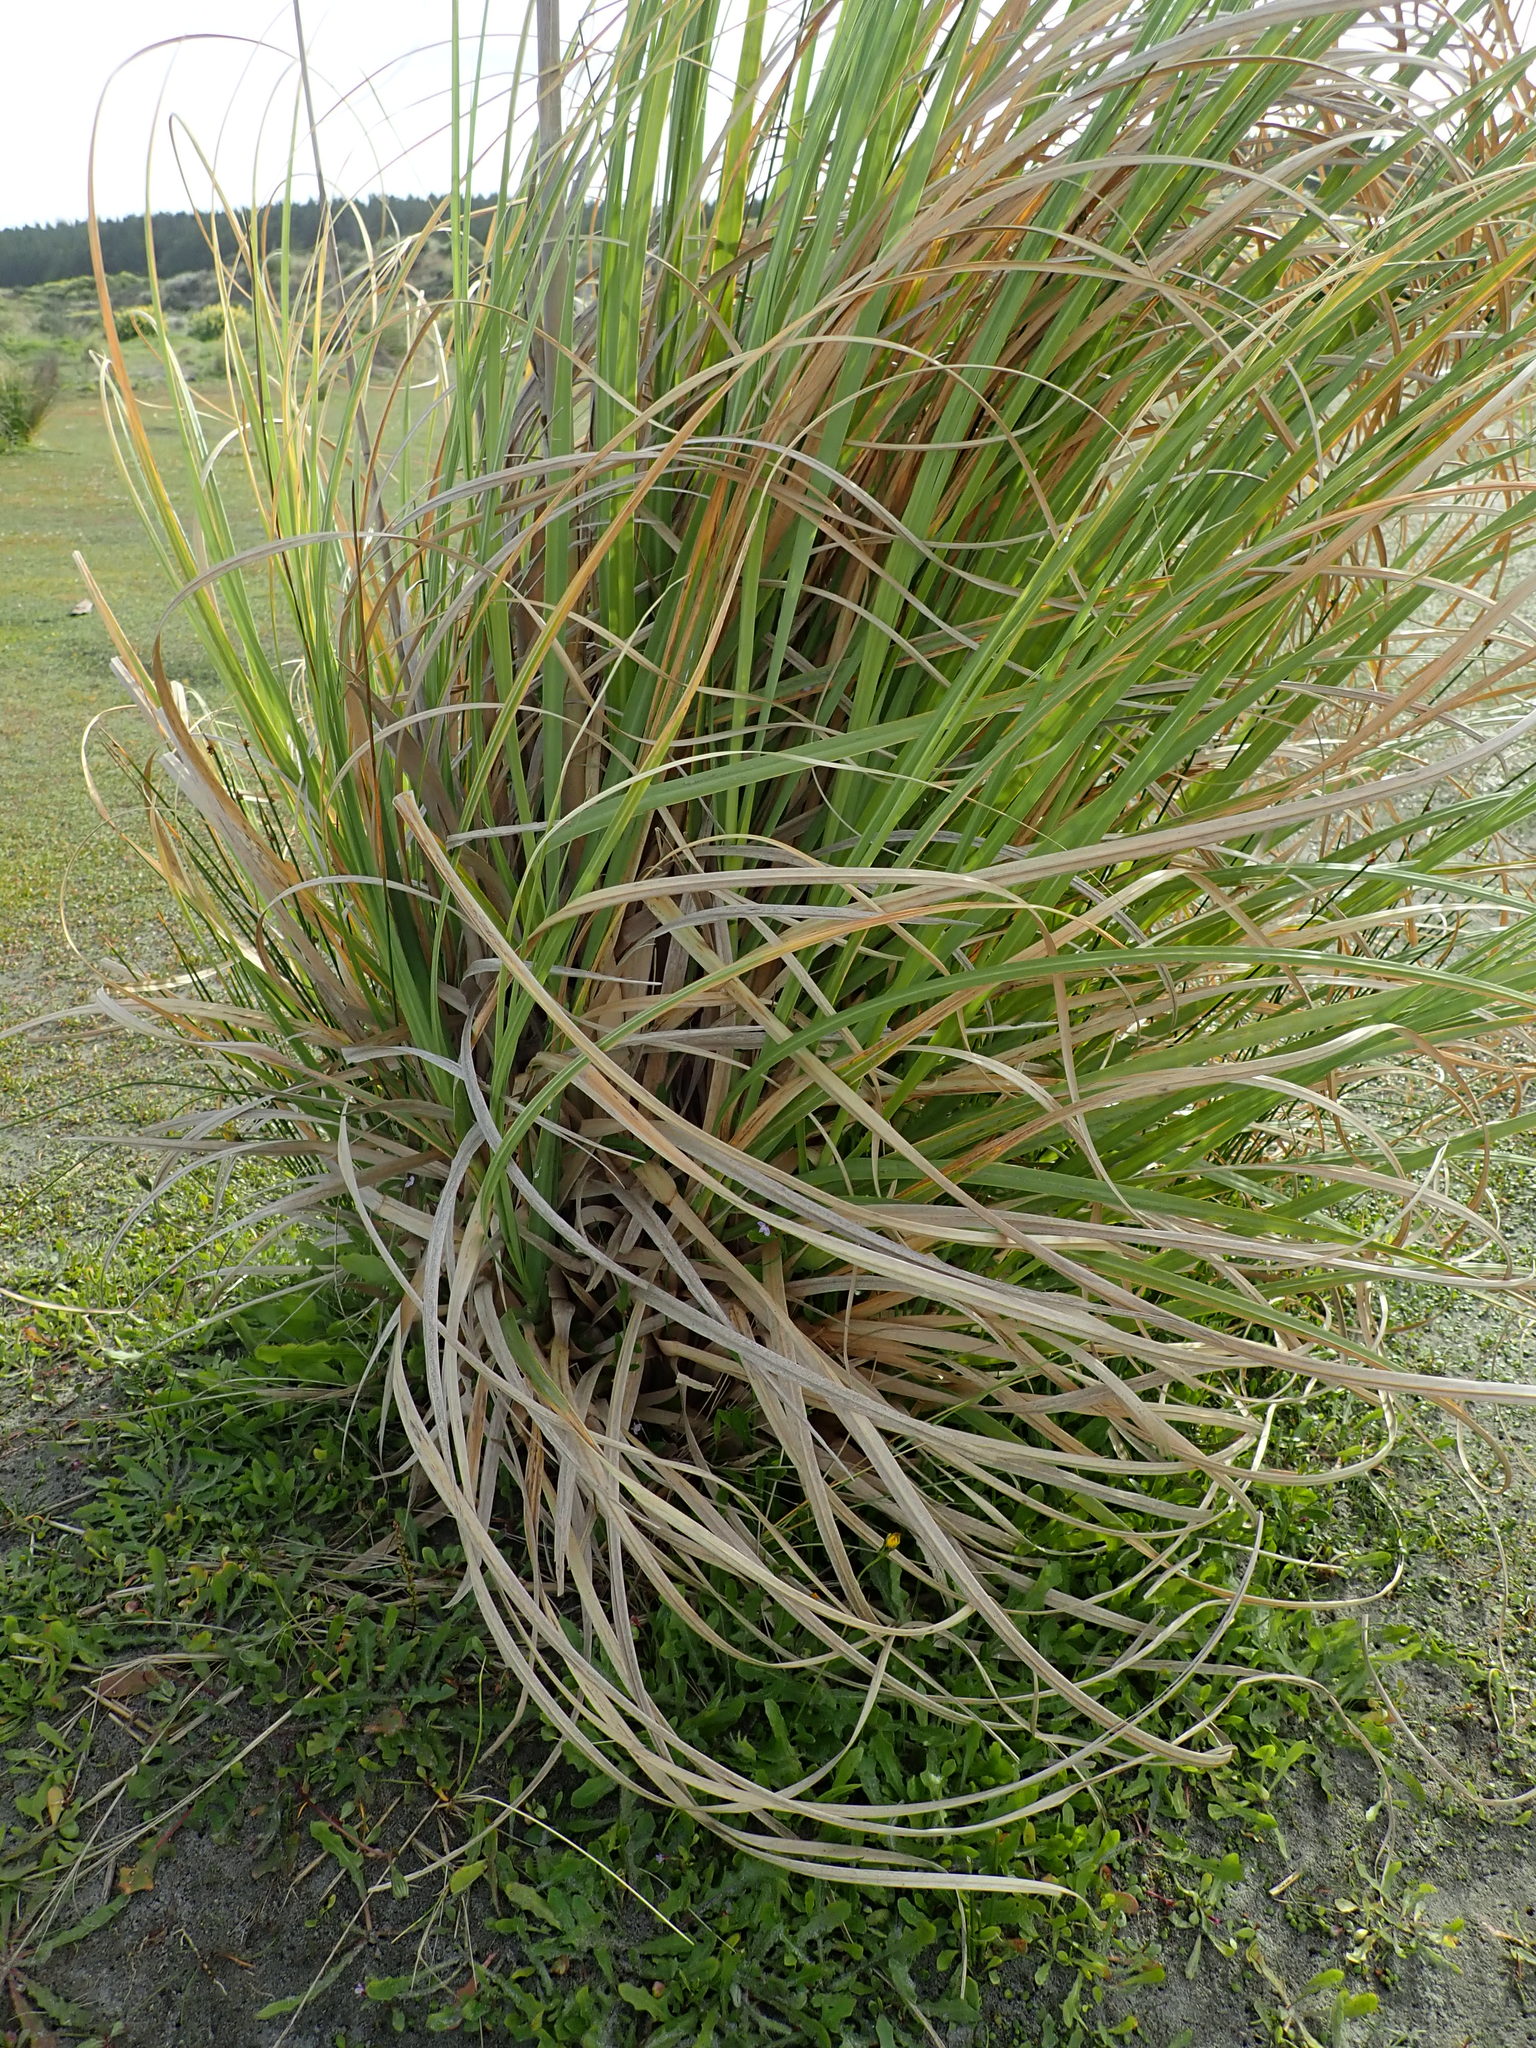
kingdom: Plantae
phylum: Tracheophyta
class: Liliopsida
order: Poales
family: Poaceae
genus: Cortaderia
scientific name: Cortaderia selloana
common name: Uruguayan pampas grass
